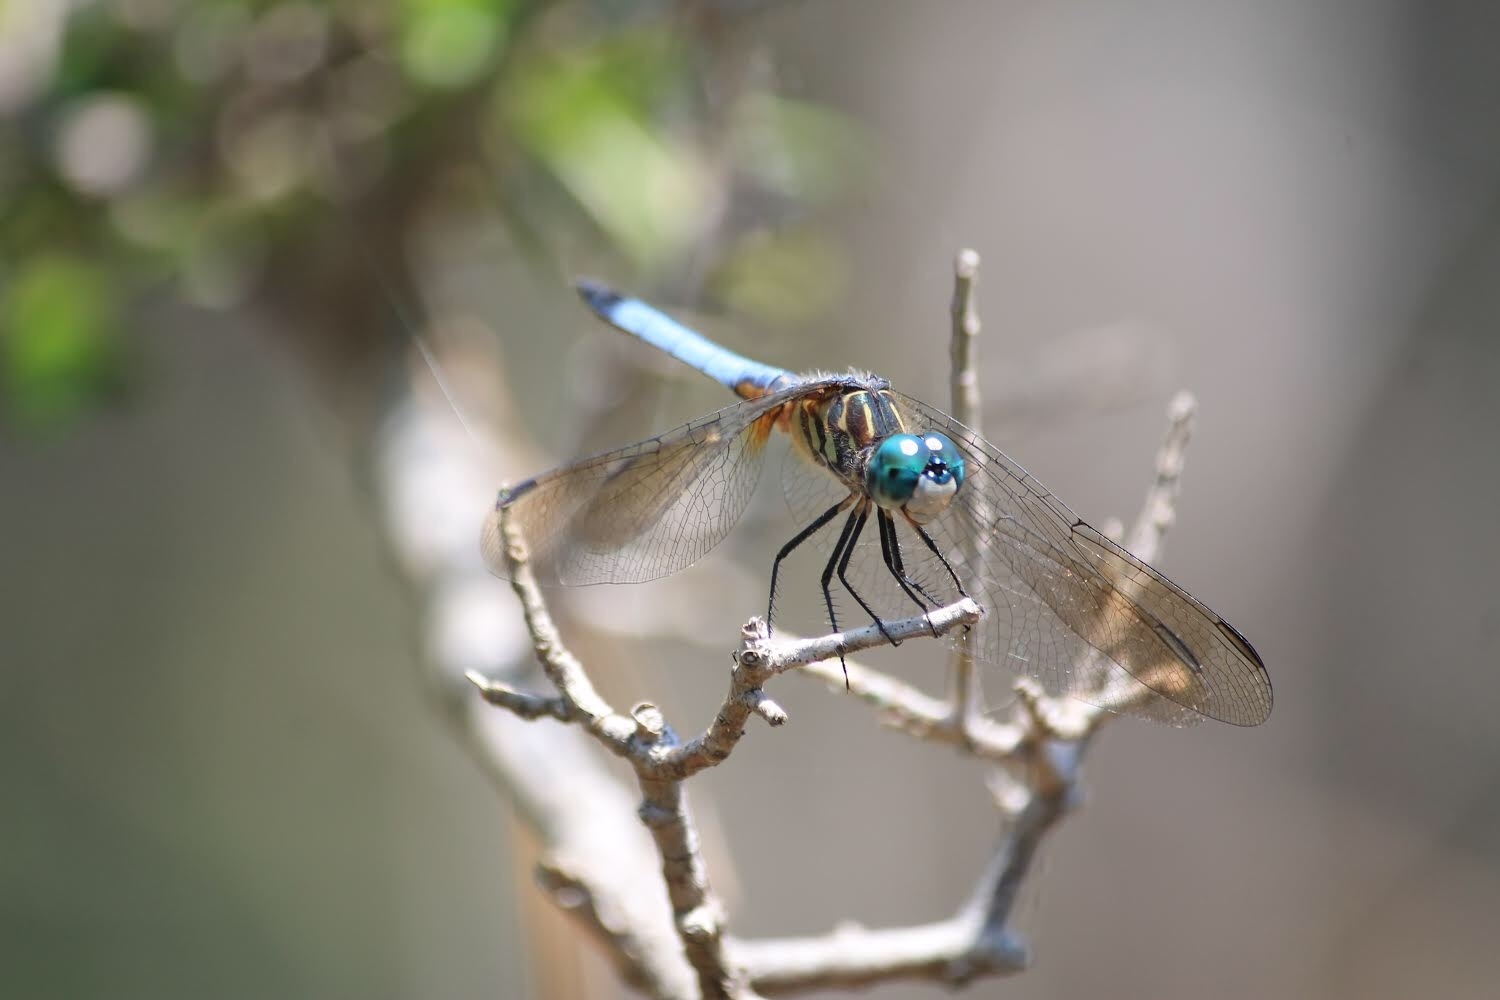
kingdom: Animalia
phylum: Arthropoda
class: Insecta
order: Odonata
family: Libellulidae
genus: Pachydiplax
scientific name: Pachydiplax longipennis
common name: Blue dasher
